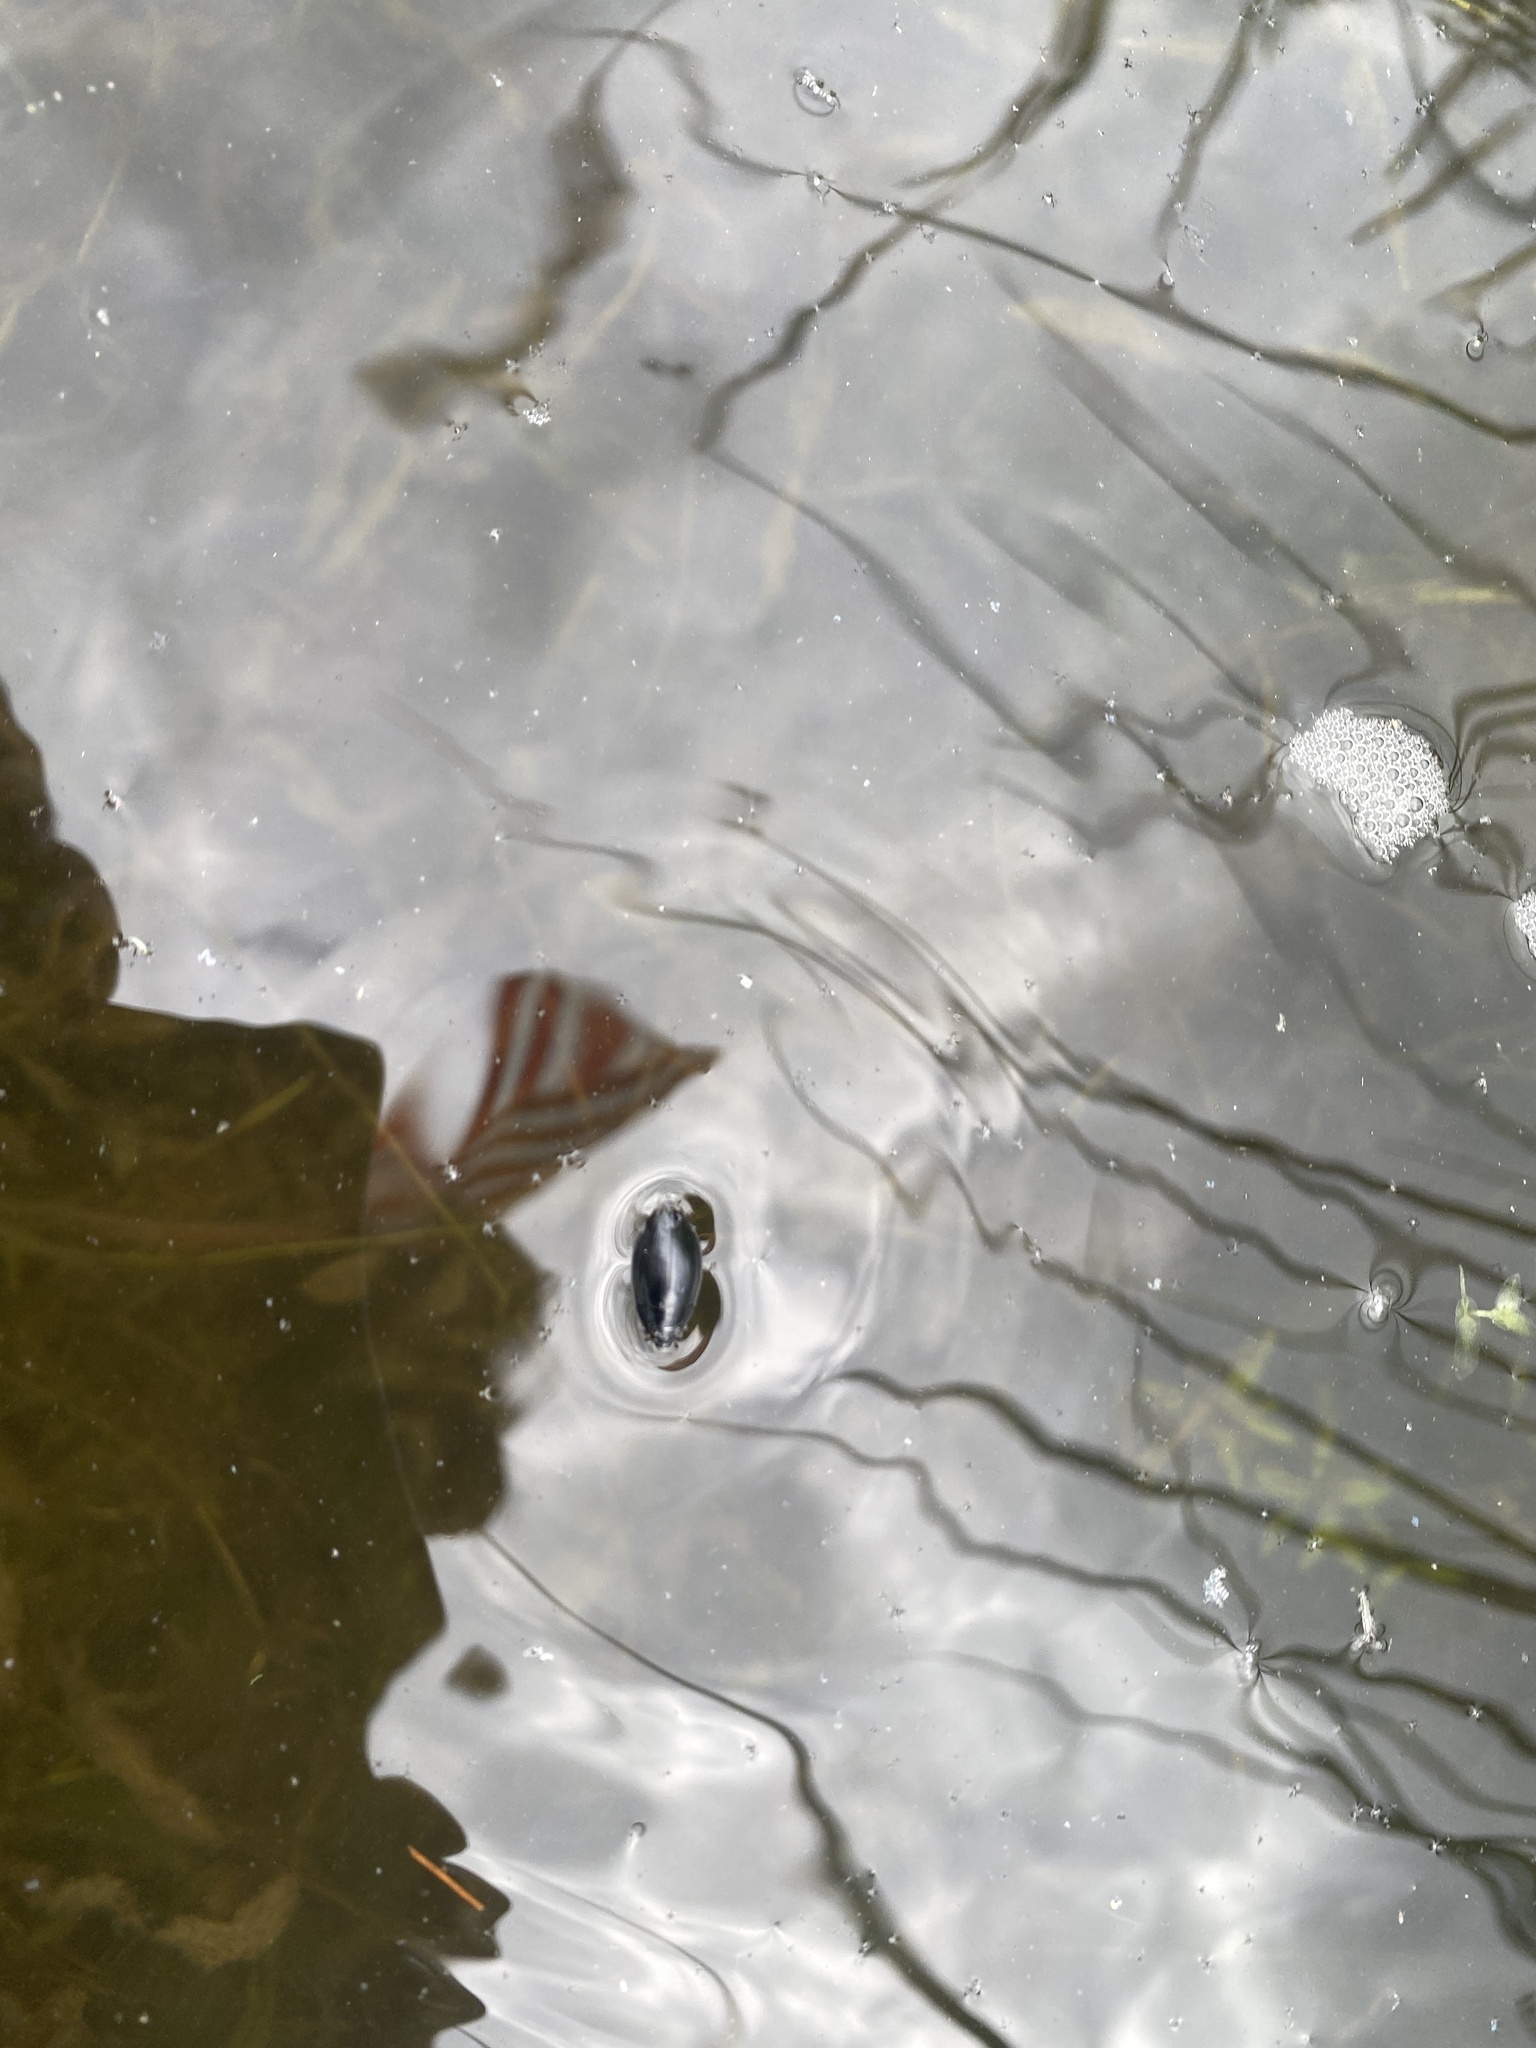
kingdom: Animalia
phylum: Arthropoda
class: Insecta
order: Coleoptera
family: Gyrinidae
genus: Dineutus
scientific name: Dineutus
